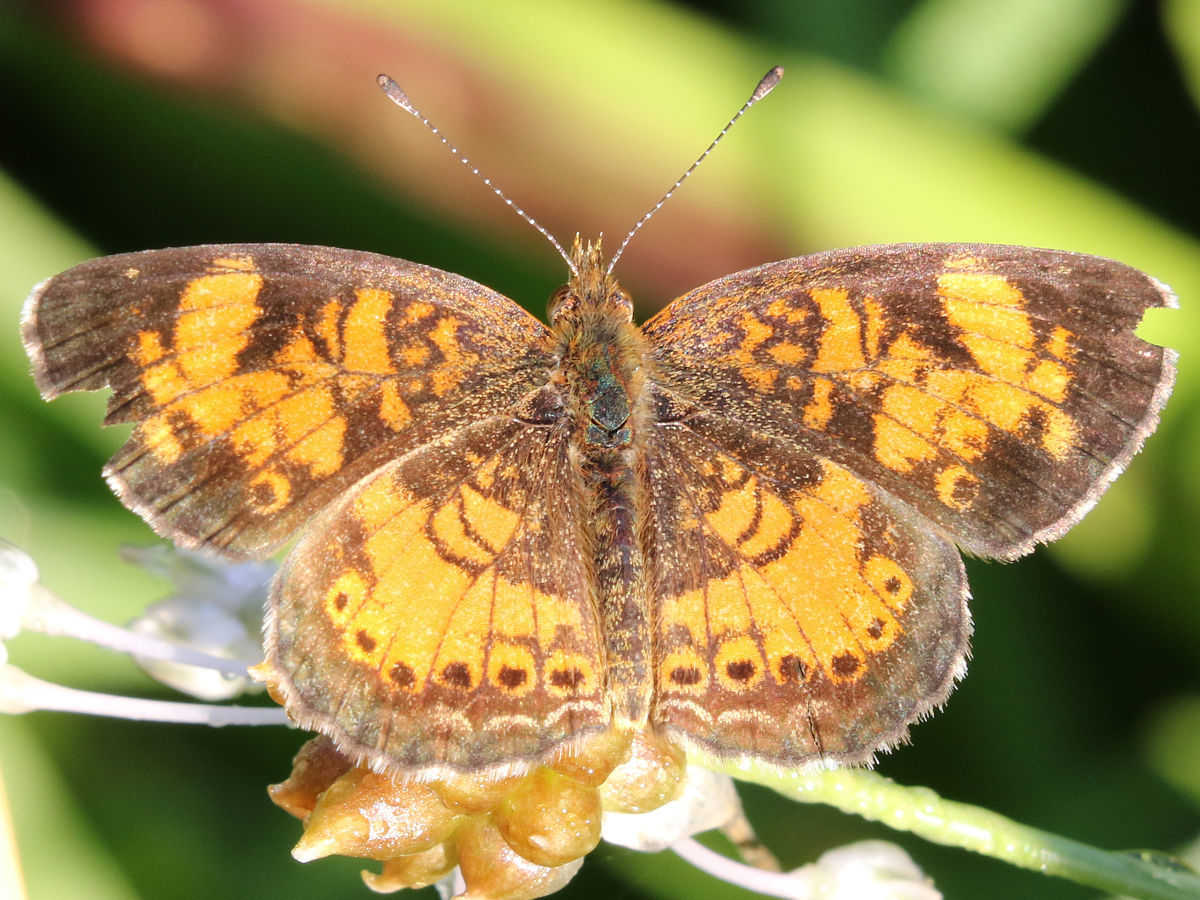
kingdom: Animalia
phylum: Arthropoda
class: Insecta
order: Lepidoptera
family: Nymphalidae
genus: Phyciodes
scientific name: Phyciodes tharos
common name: Pearl crescent
